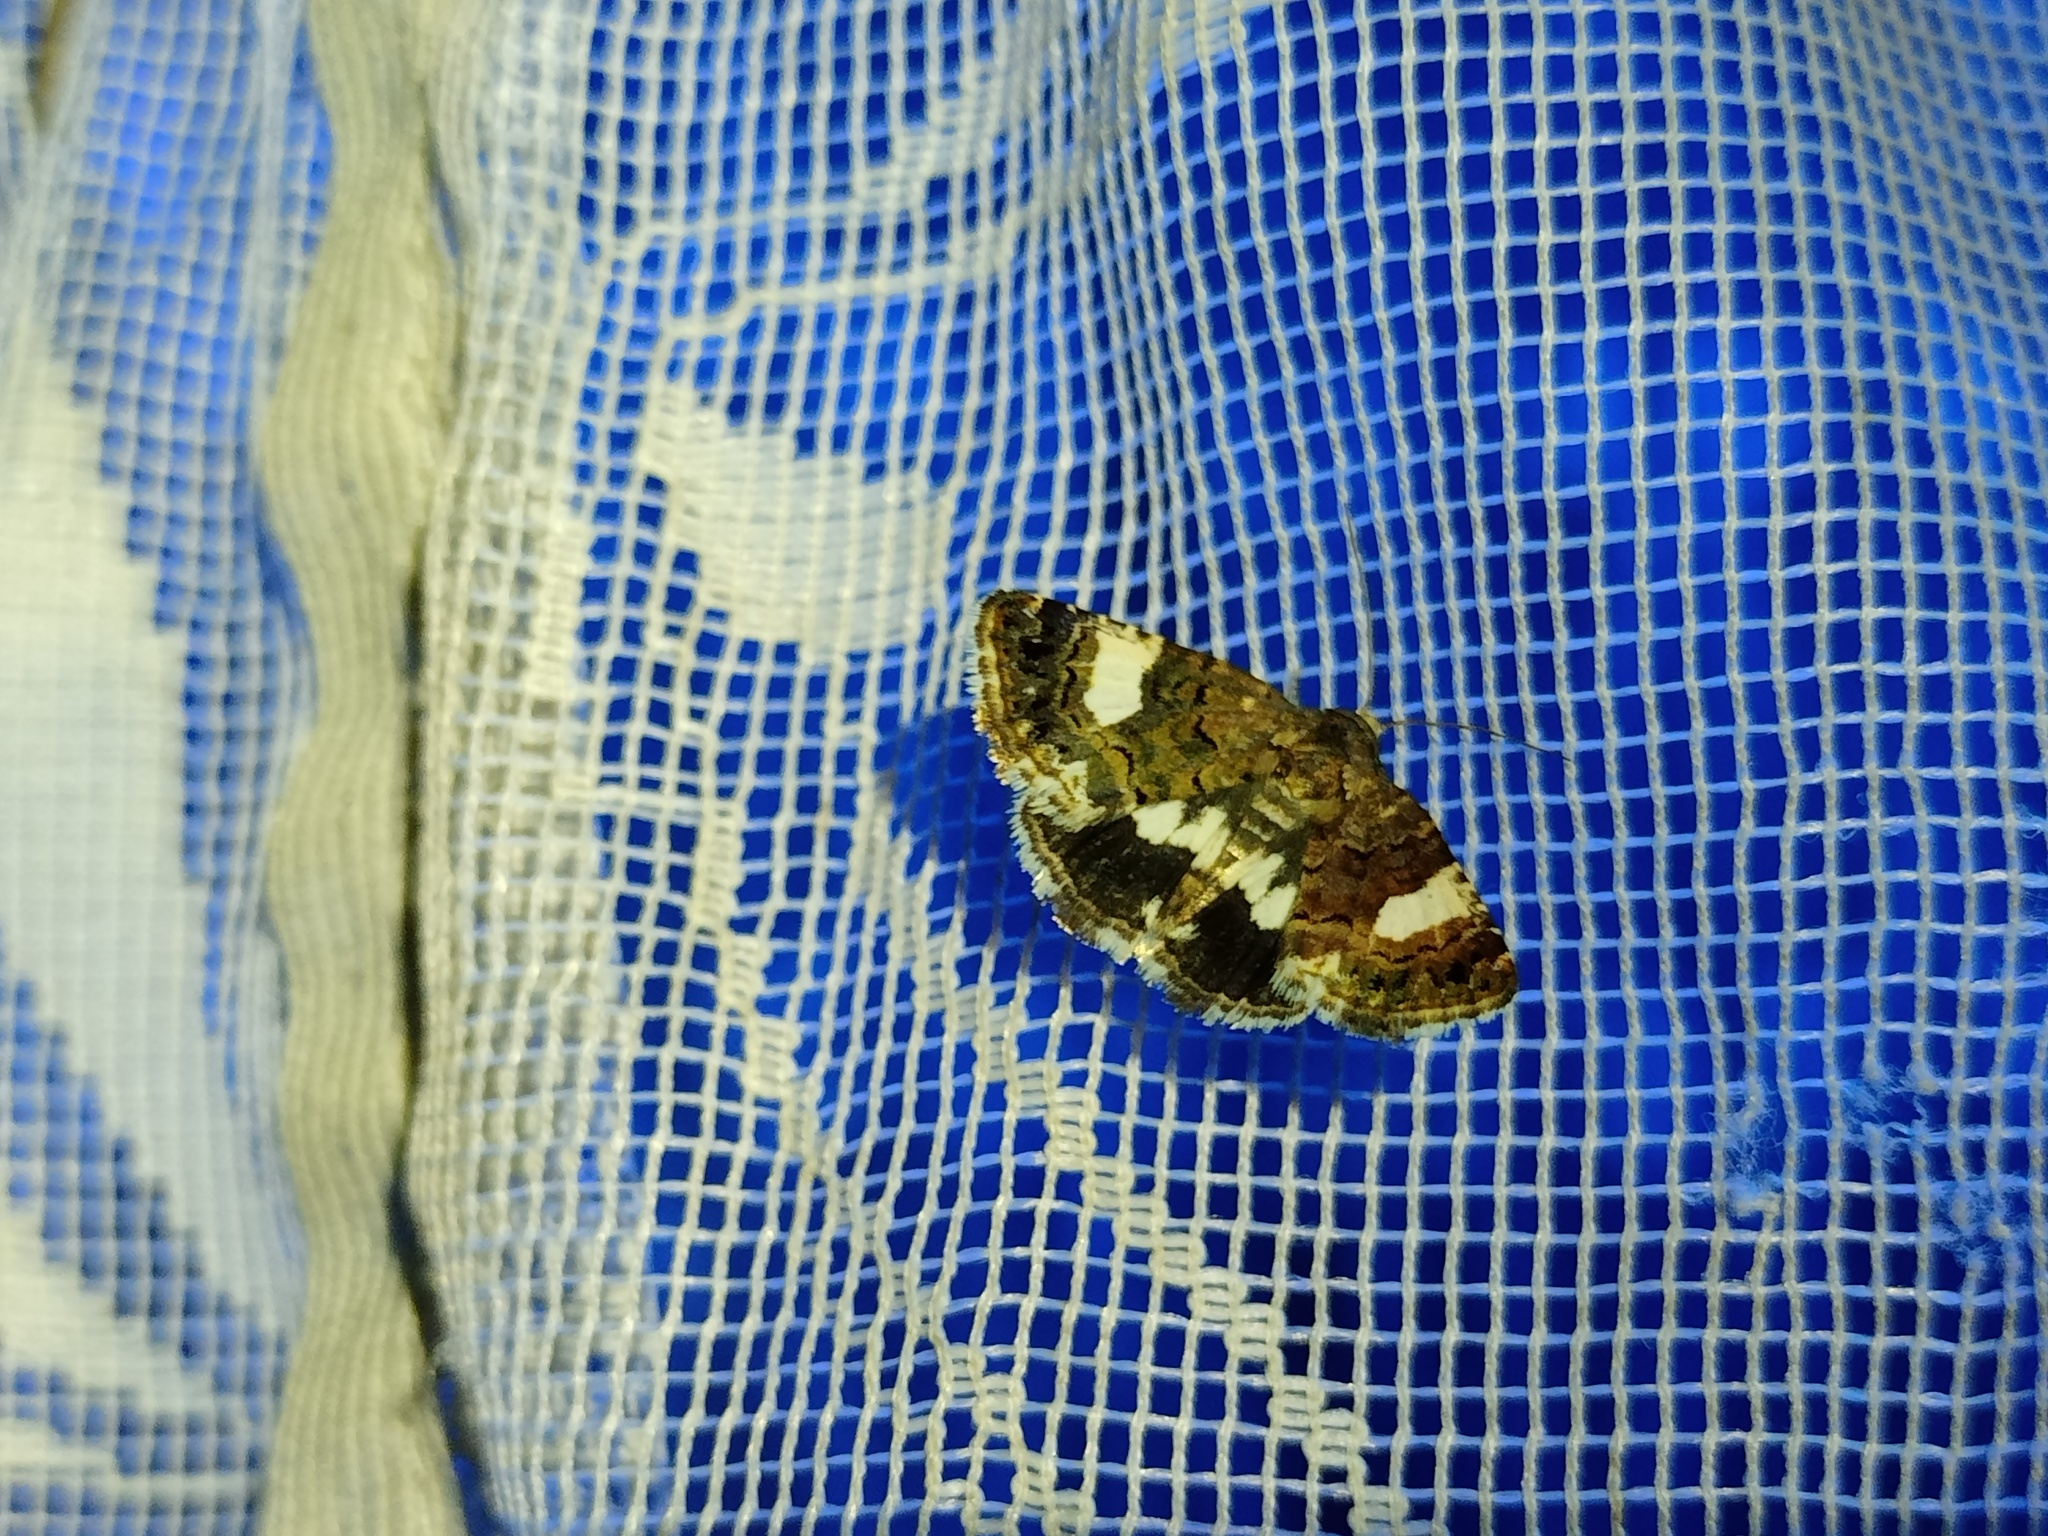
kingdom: Animalia
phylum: Arthropoda
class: Insecta
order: Lepidoptera
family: Erebidae
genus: Tyta
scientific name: Tyta luctuosa
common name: Four-spotted
